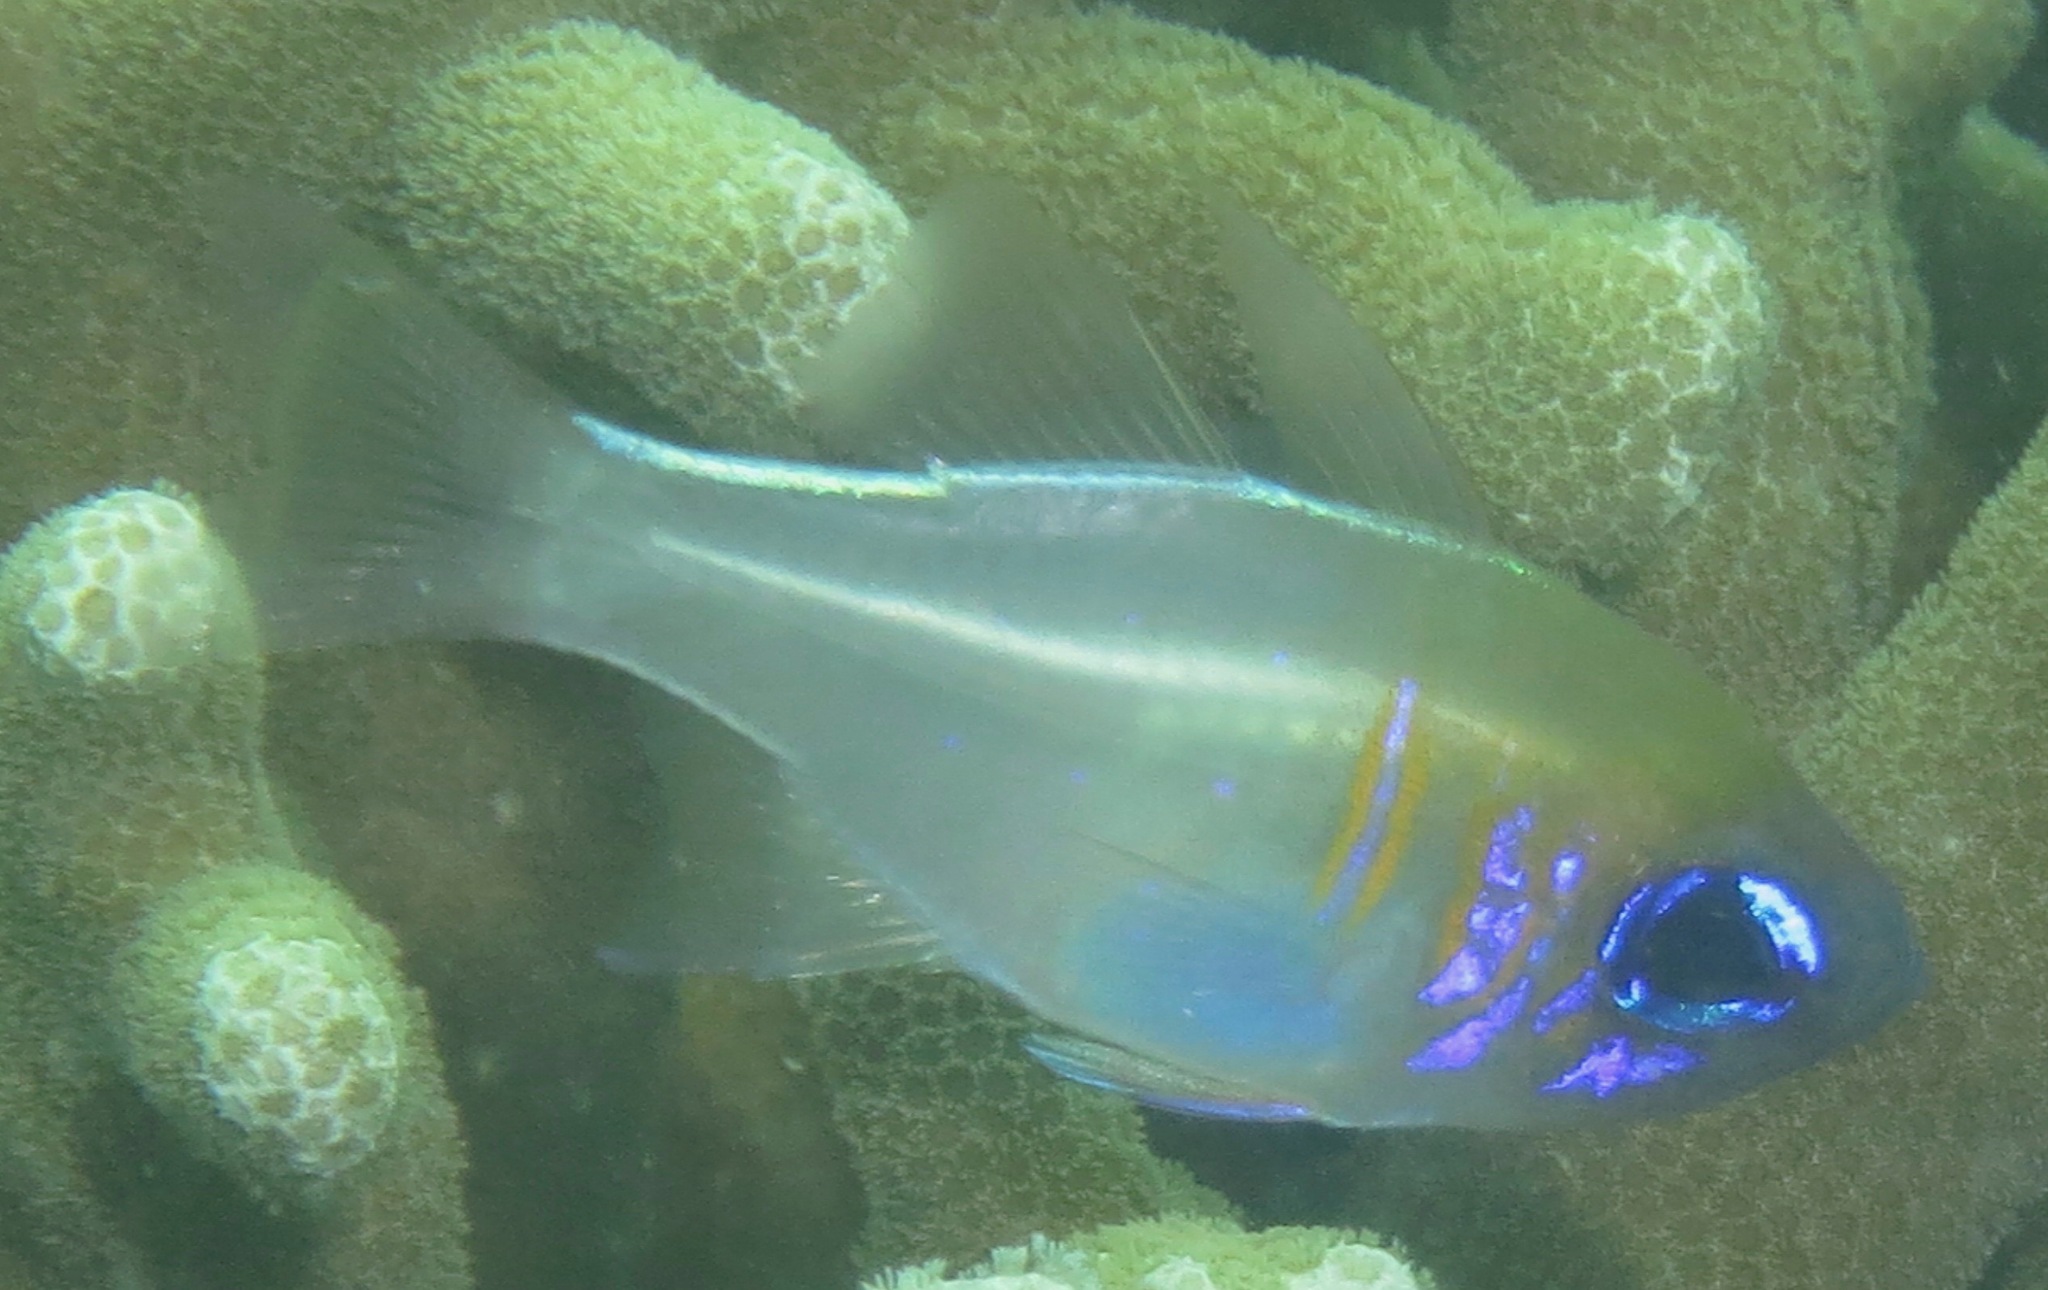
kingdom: Animalia
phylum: Chordata
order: Perciformes
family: Apogonidae
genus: Zoramia
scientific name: Zoramia leptacantha
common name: Threadfin cardinalfish
